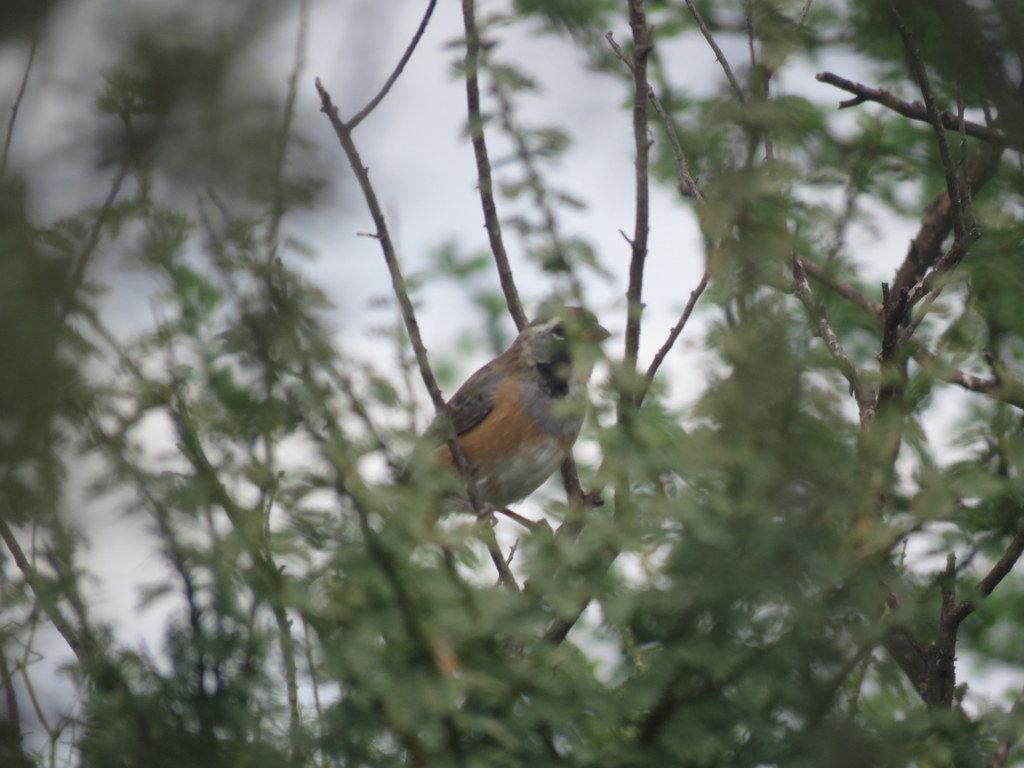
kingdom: Animalia
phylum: Chordata
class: Aves
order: Passeriformes
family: Thraupidae
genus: Saltatricula
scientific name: Saltatricula multicolor
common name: Many-colored chaco finch
